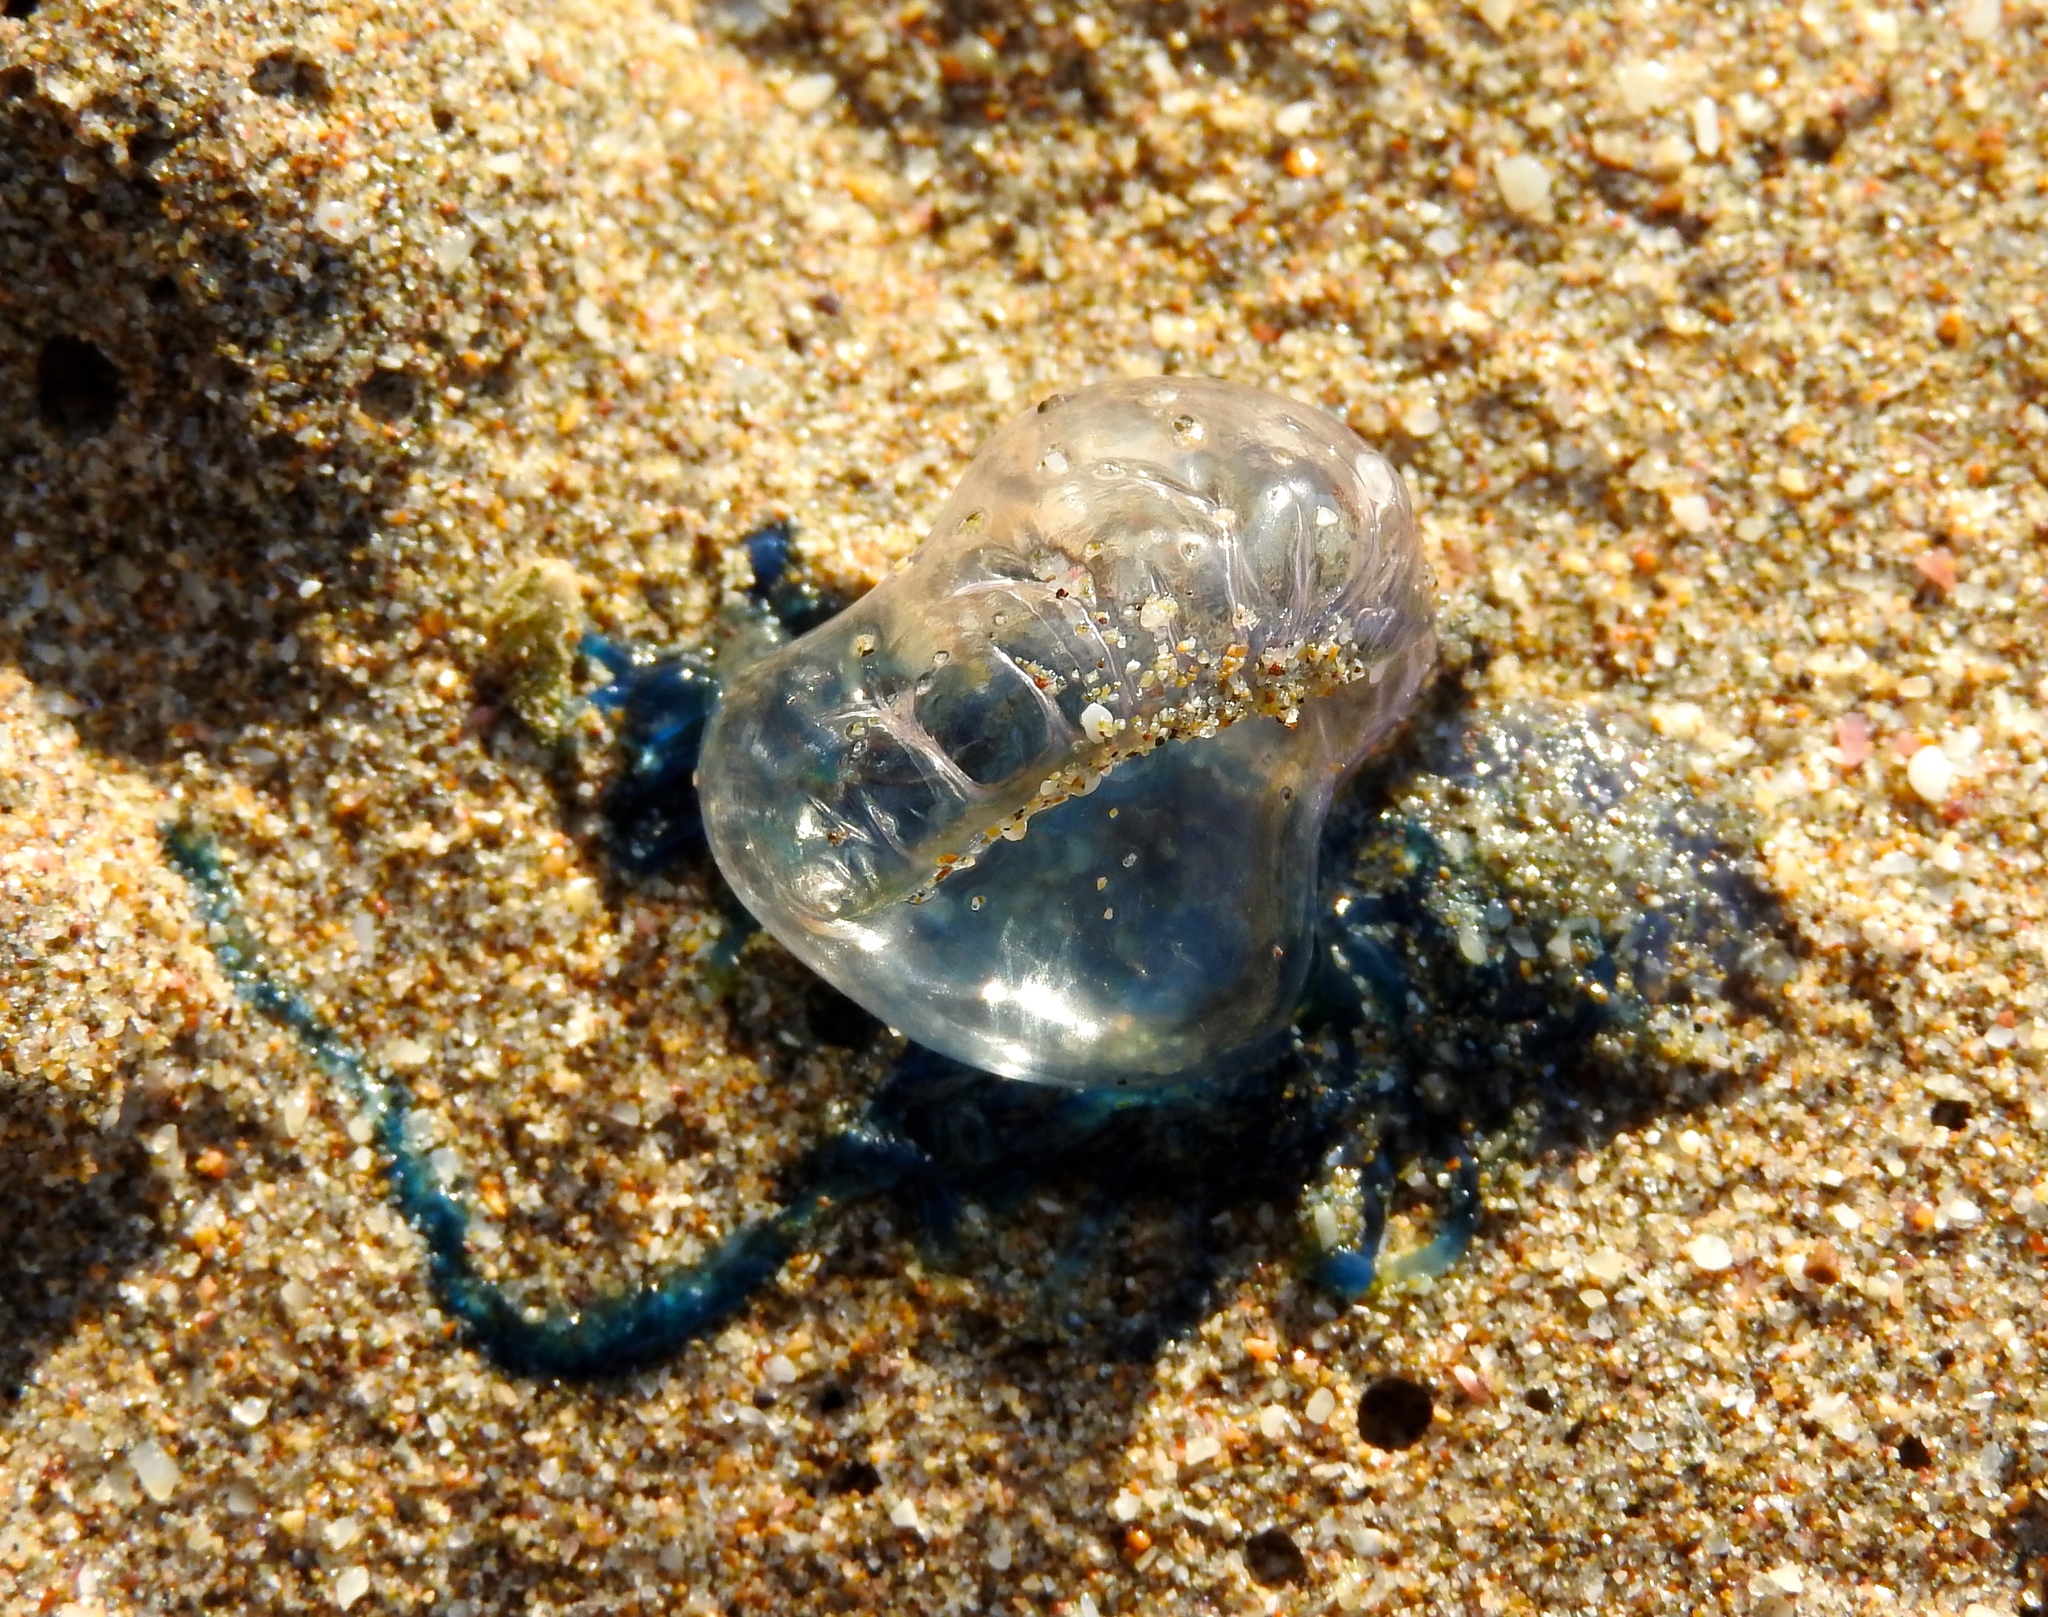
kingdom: Animalia
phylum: Cnidaria
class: Hydrozoa
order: Siphonophorae
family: Physaliidae
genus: Physalia
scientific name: Physalia physalis
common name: Portuguese man-of-war
